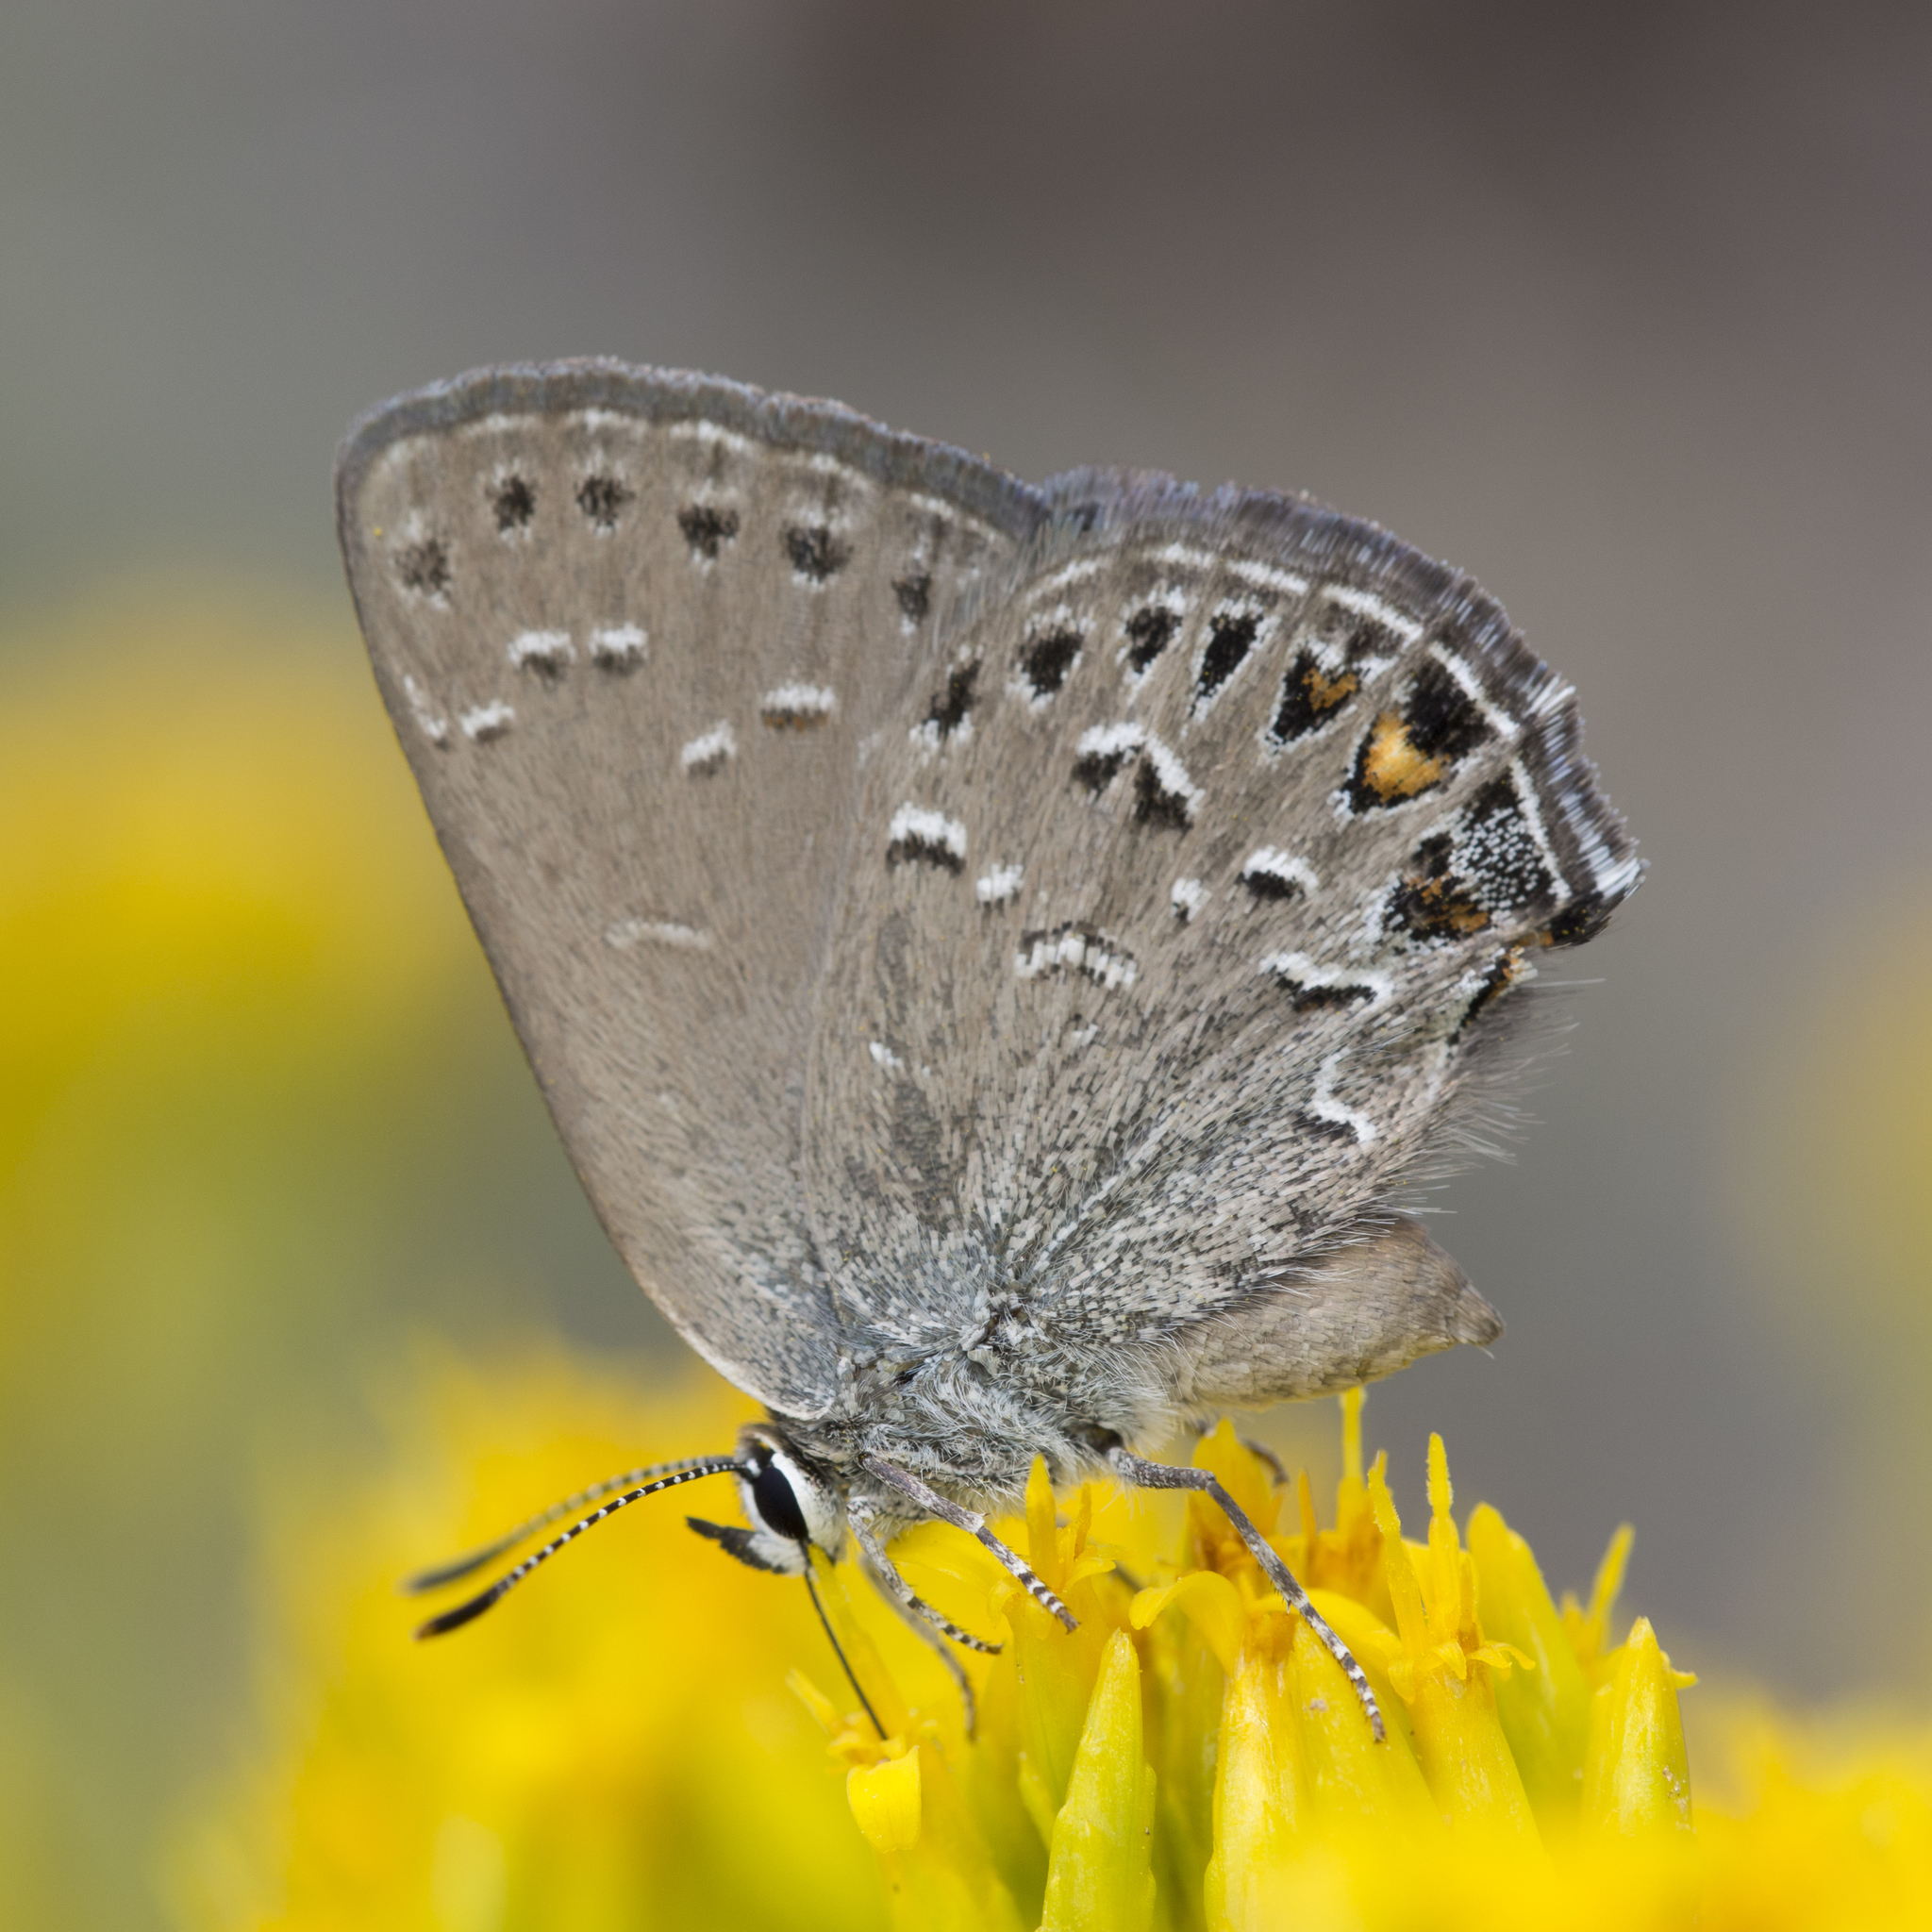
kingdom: Animalia
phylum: Arthropoda
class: Insecta
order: Lepidoptera
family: Lycaenidae
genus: Satyrium
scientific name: Satyrium behrii
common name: Behr's hairstreak
